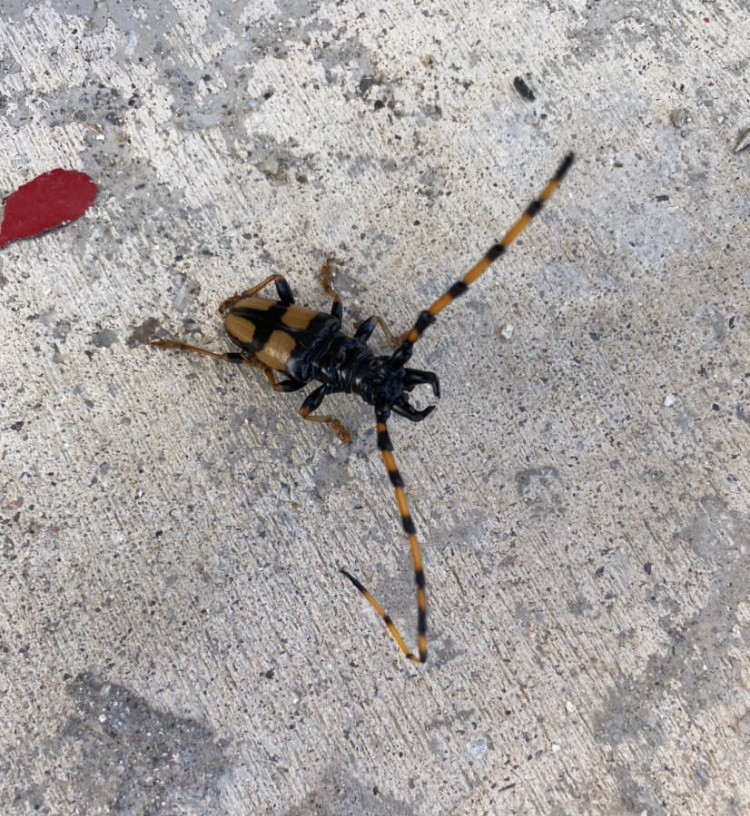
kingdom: Animalia
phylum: Arthropoda
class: Insecta
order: Coleoptera
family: Cerambycidae
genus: Trachyderes
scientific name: Trachyderes mandibularis
